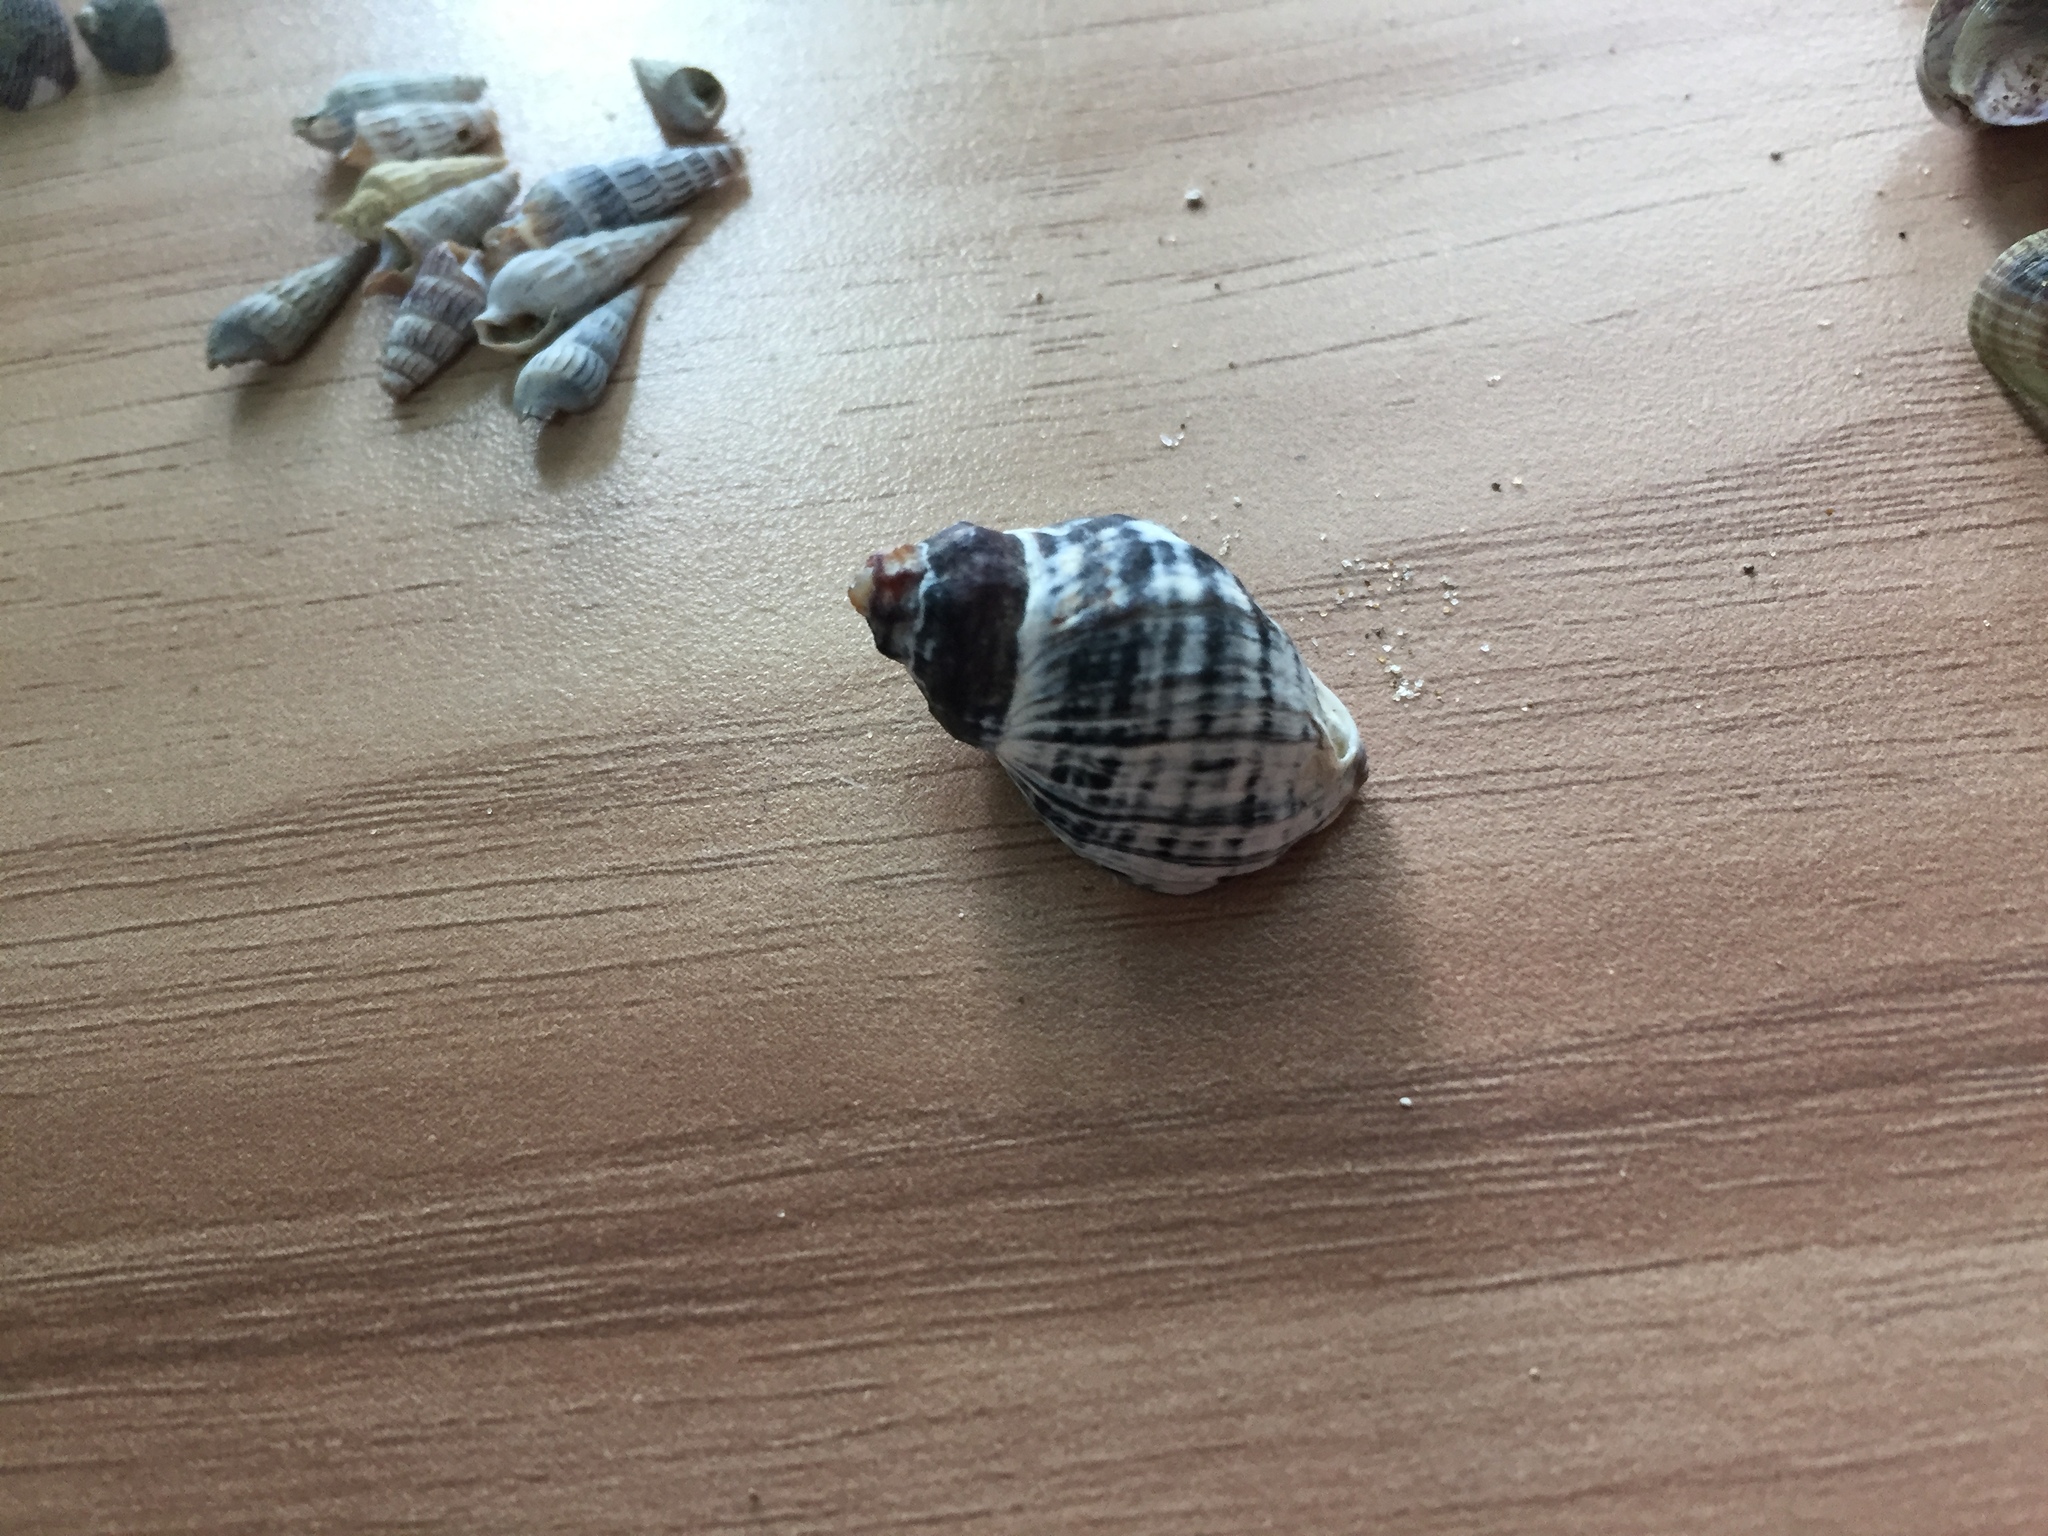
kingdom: Animalia
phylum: Mollusca
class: Gastropoda
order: Neogastropoda
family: Muricidae
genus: Haustrum
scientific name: Haustrum albomarginatum
